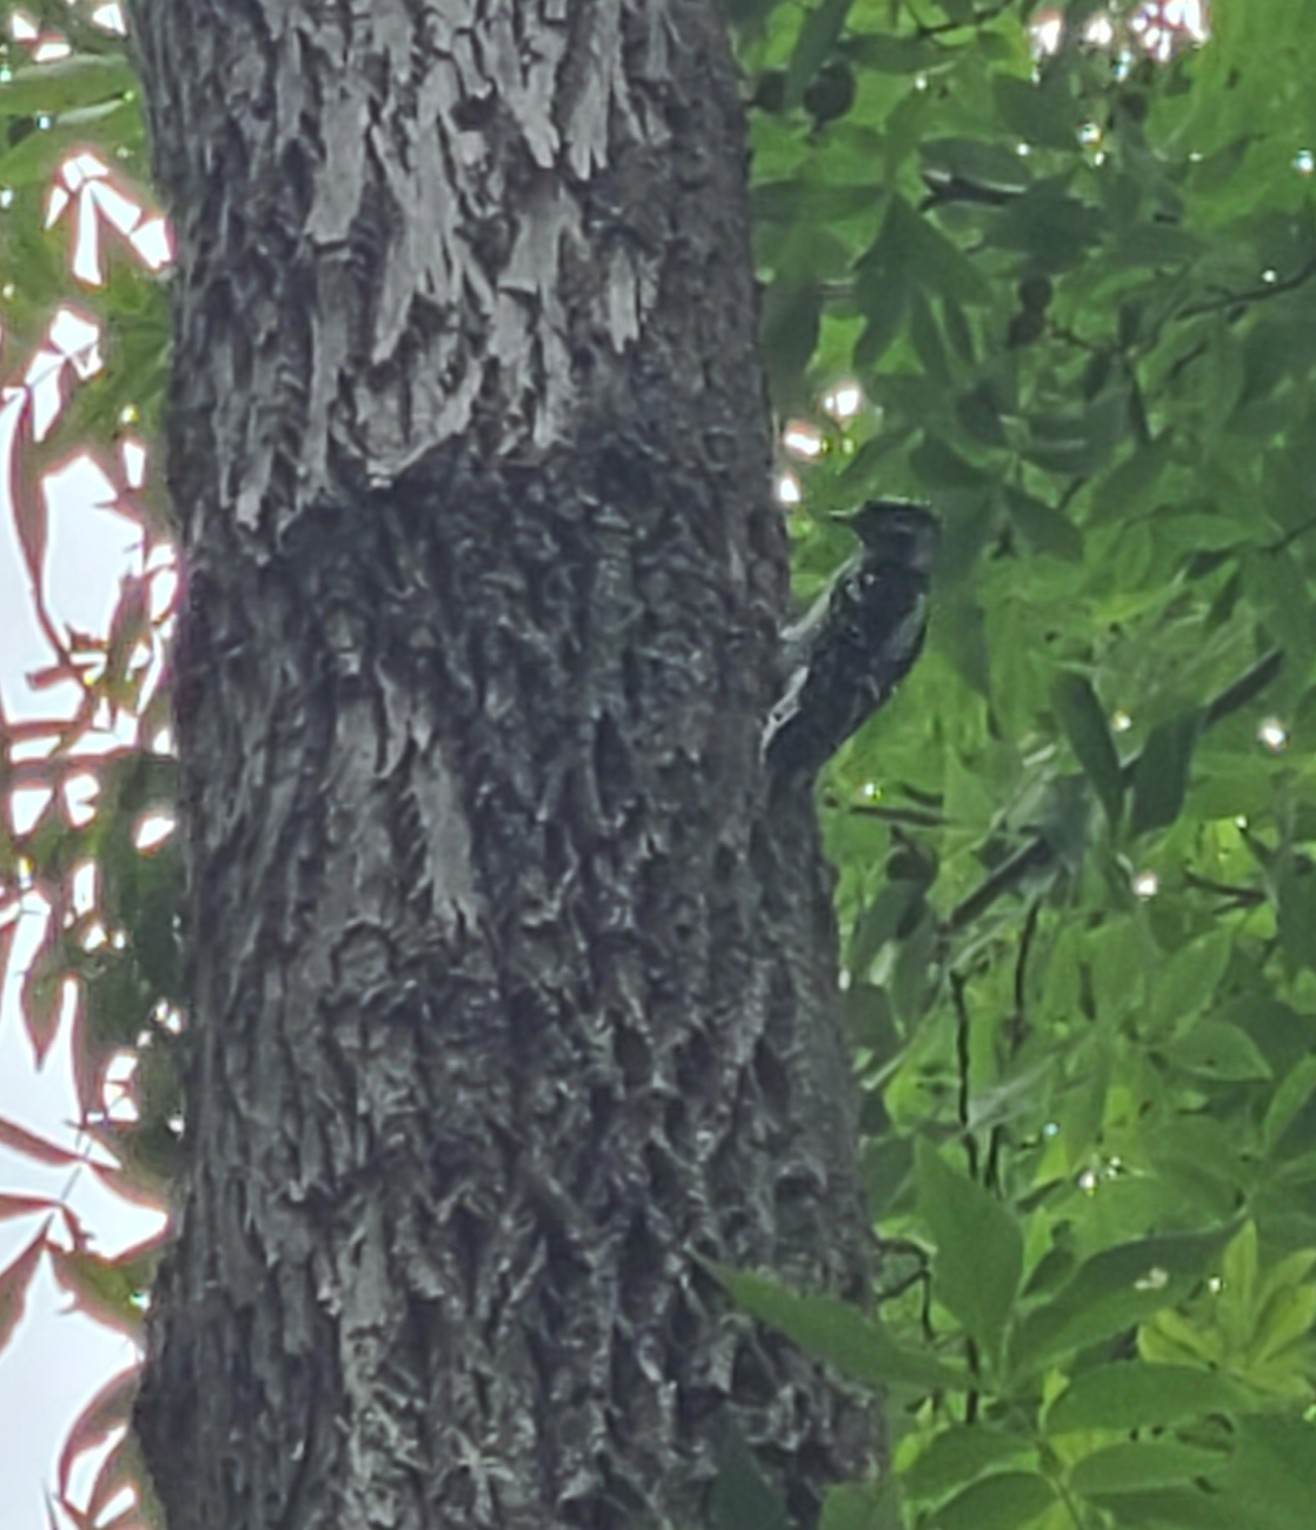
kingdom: Animalia
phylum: Chordata
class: Aves
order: Piciformes
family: Picidae
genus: Leuconotopicus
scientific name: Leuconotopicus villosus
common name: Hairy woodpecker
